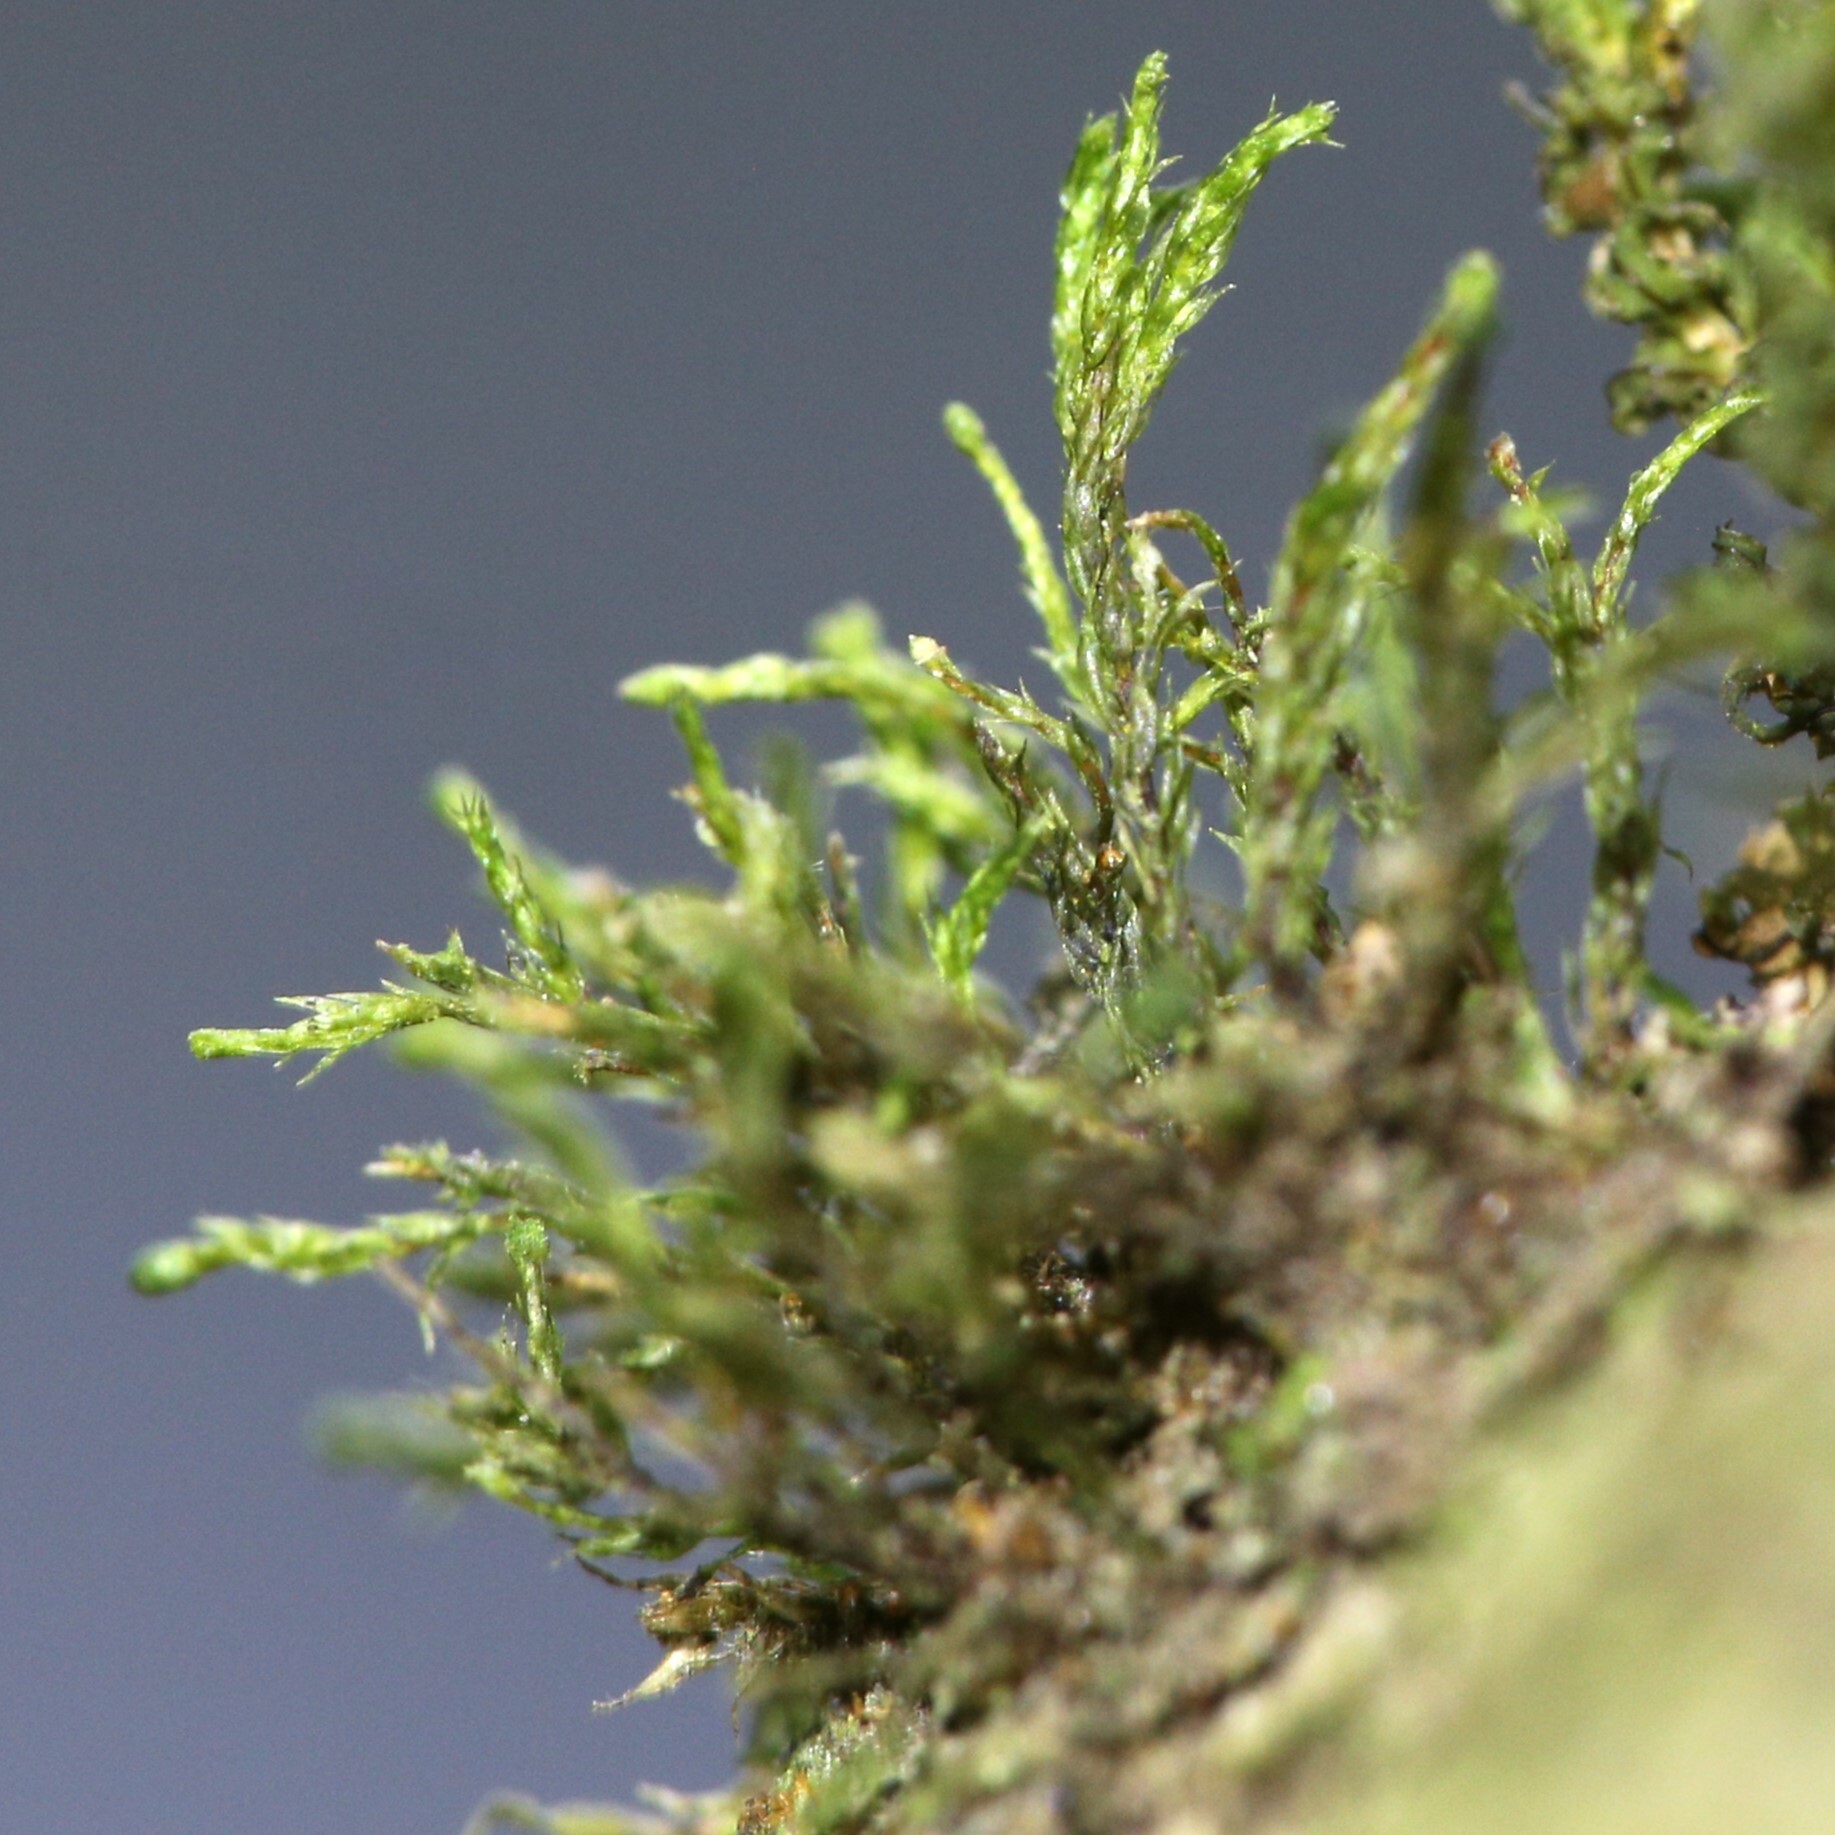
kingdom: Plantae
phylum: Bryophyta
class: Bryopsida
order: Ptychomniales
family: Ptychomniaceae
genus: Tetraphidopsis
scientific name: Tetraphidopsis pusilla
